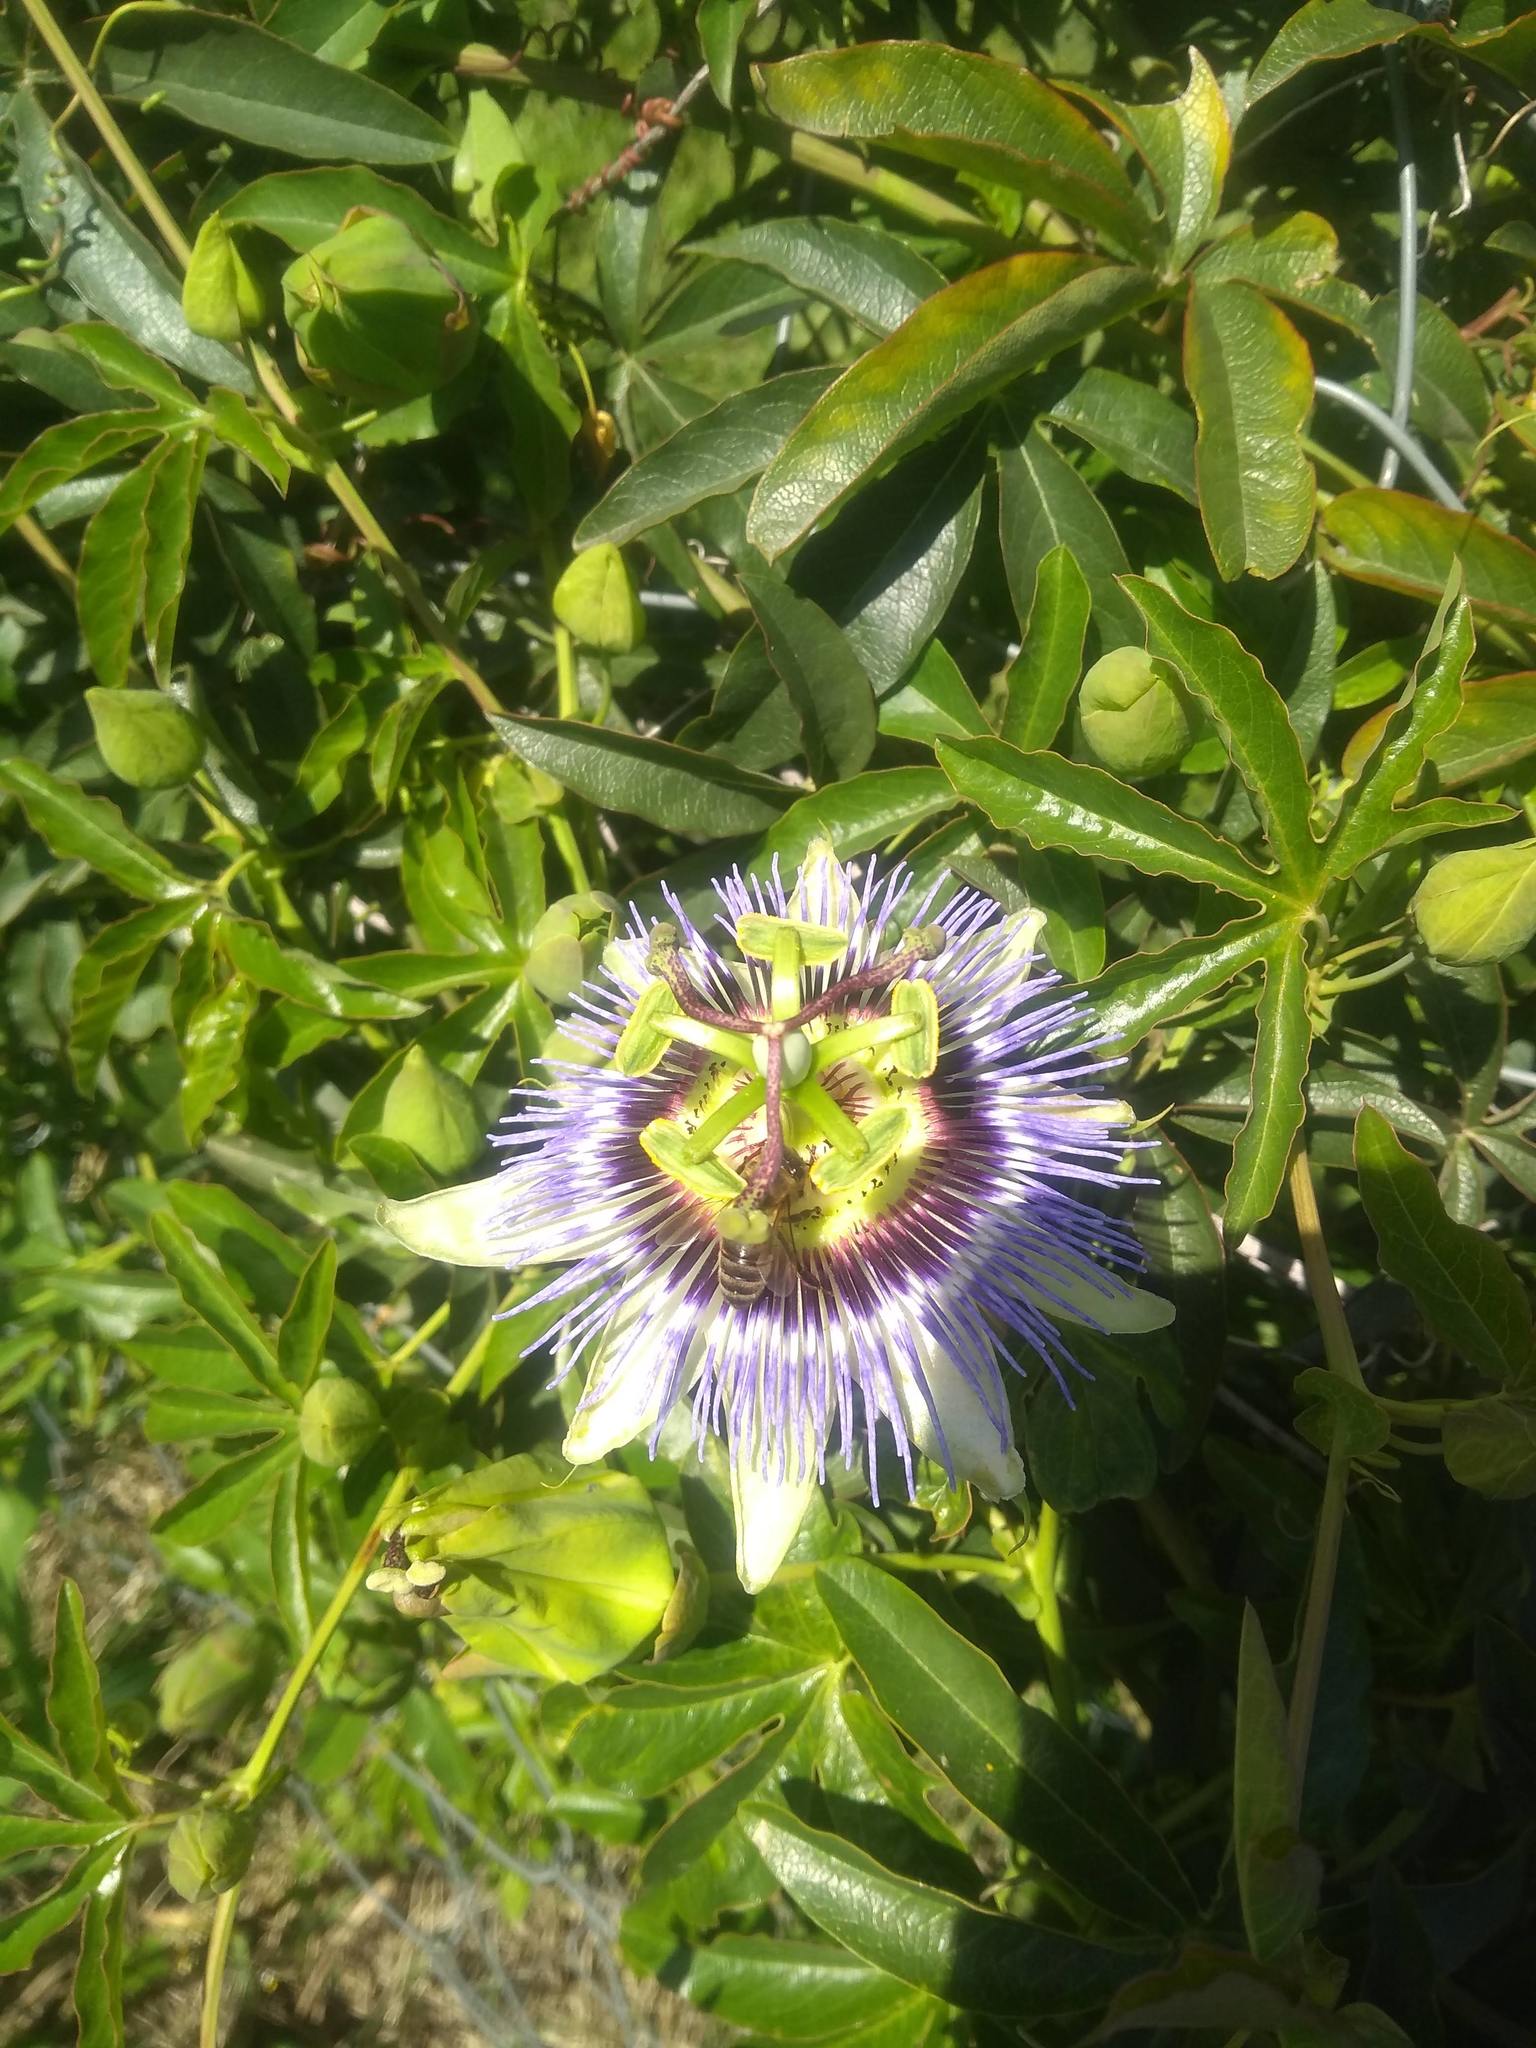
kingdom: Animalia
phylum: Arthropoda
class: Insecta
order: Hymenoptera
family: Apidae
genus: Apis
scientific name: Apis mellifera
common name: Honey bee
